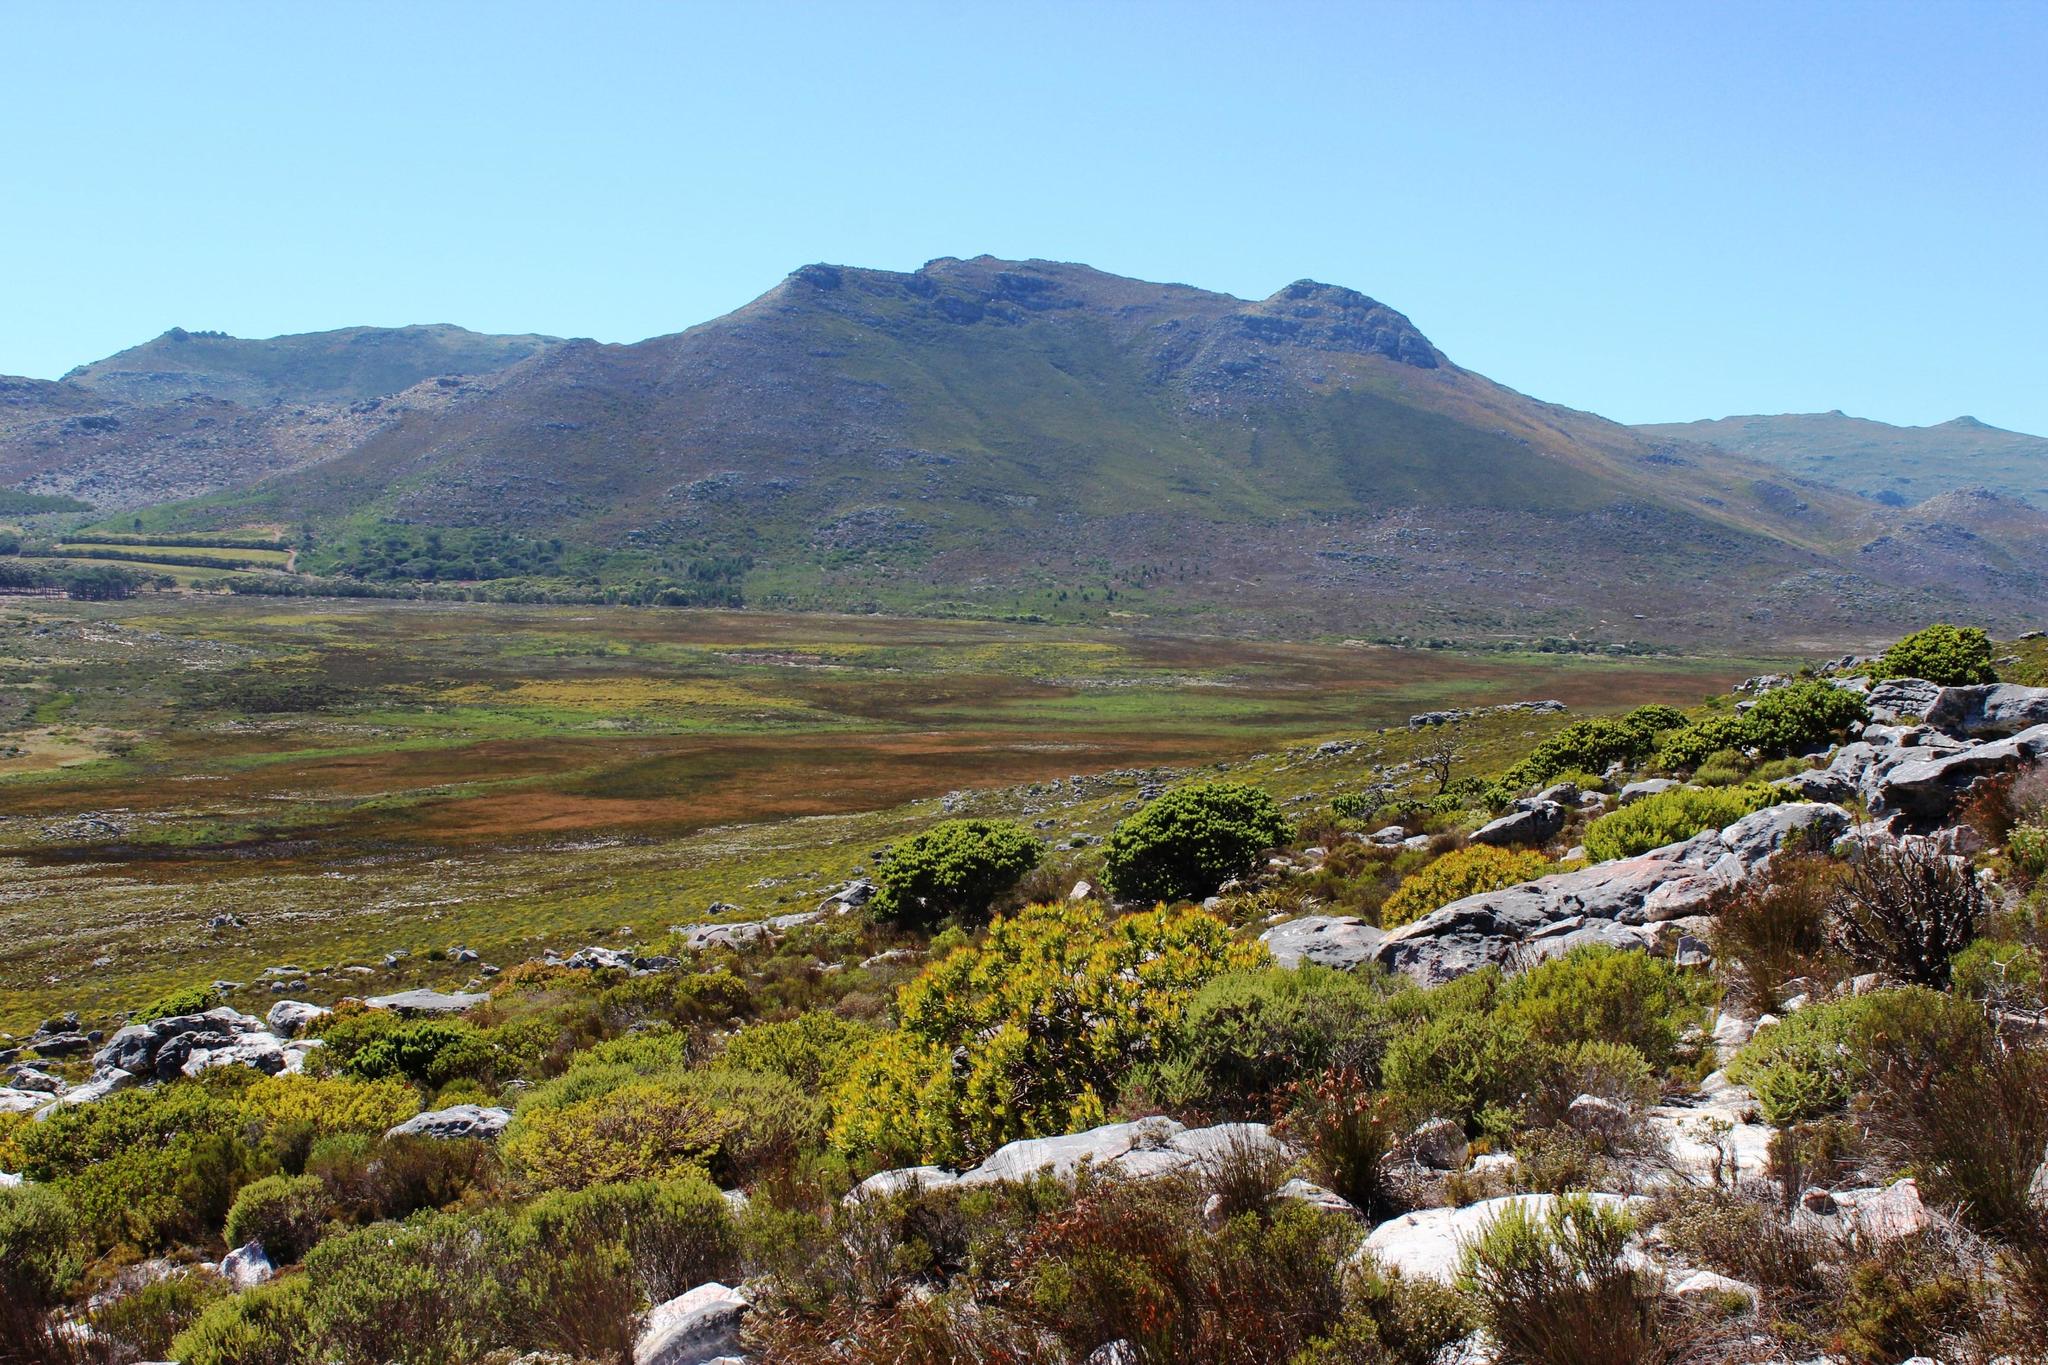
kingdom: Plantae
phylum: Tracheophyta
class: Liliopsida
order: Poales
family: Restionaceae
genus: Elegia
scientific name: Elegia cuspidata
